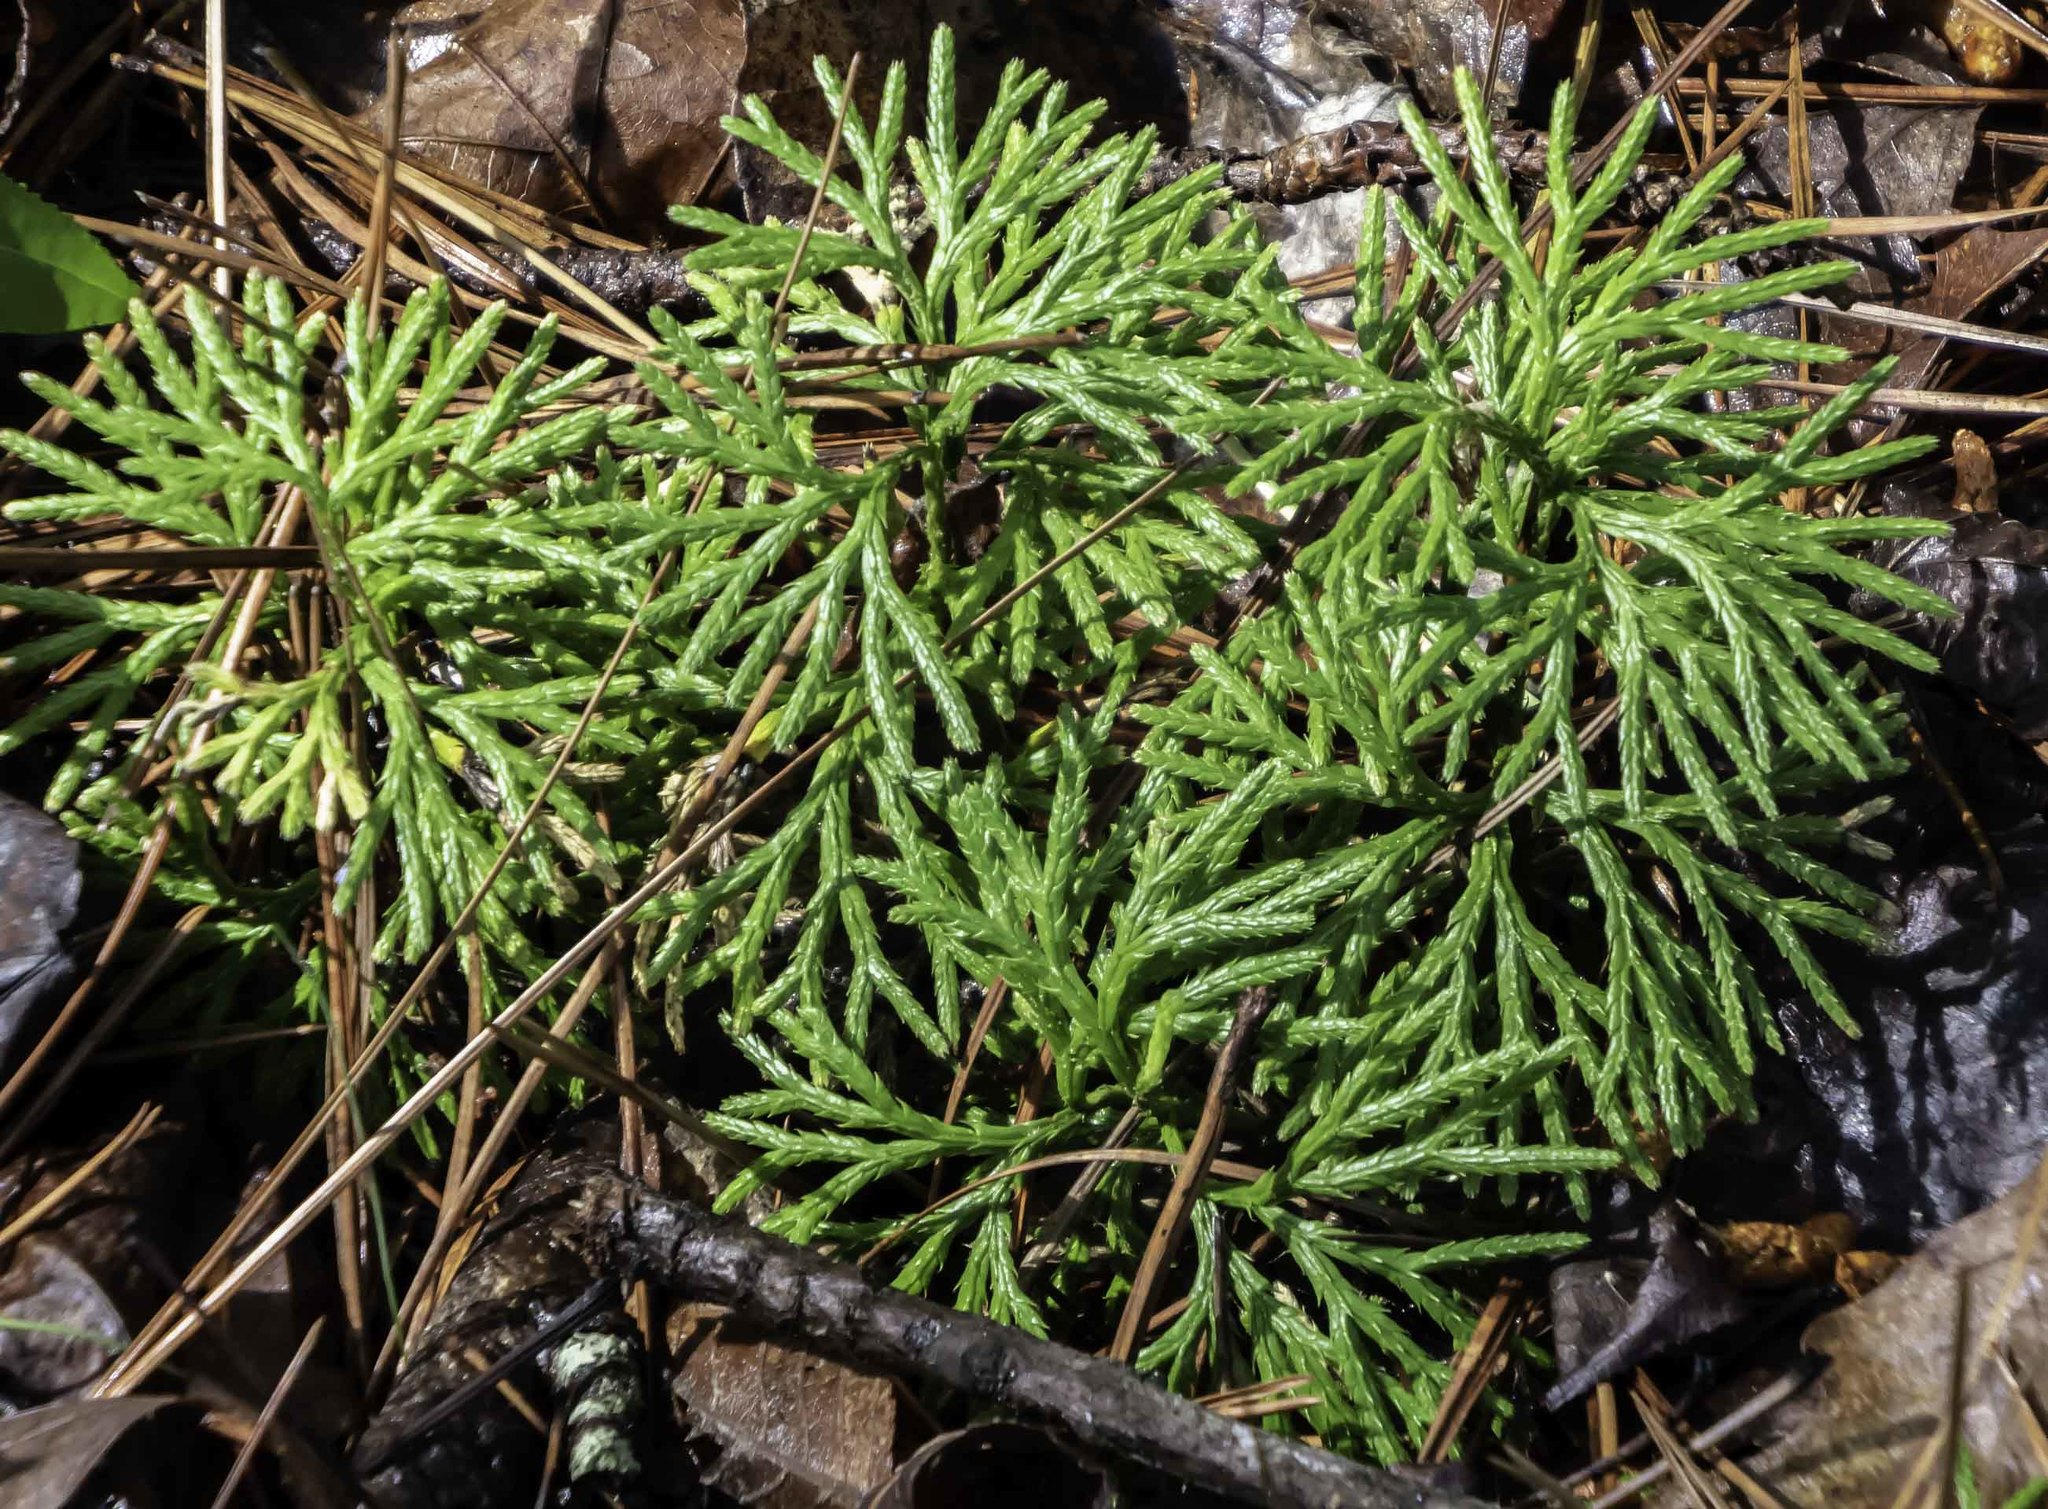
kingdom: Plantae
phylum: Tracheophyta
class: Lycopodiopsida
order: Lycopodiales
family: Lycopodiaceae
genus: Diphasiastrum
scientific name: Diphasiastrum digitatum
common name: Southern running-pine
